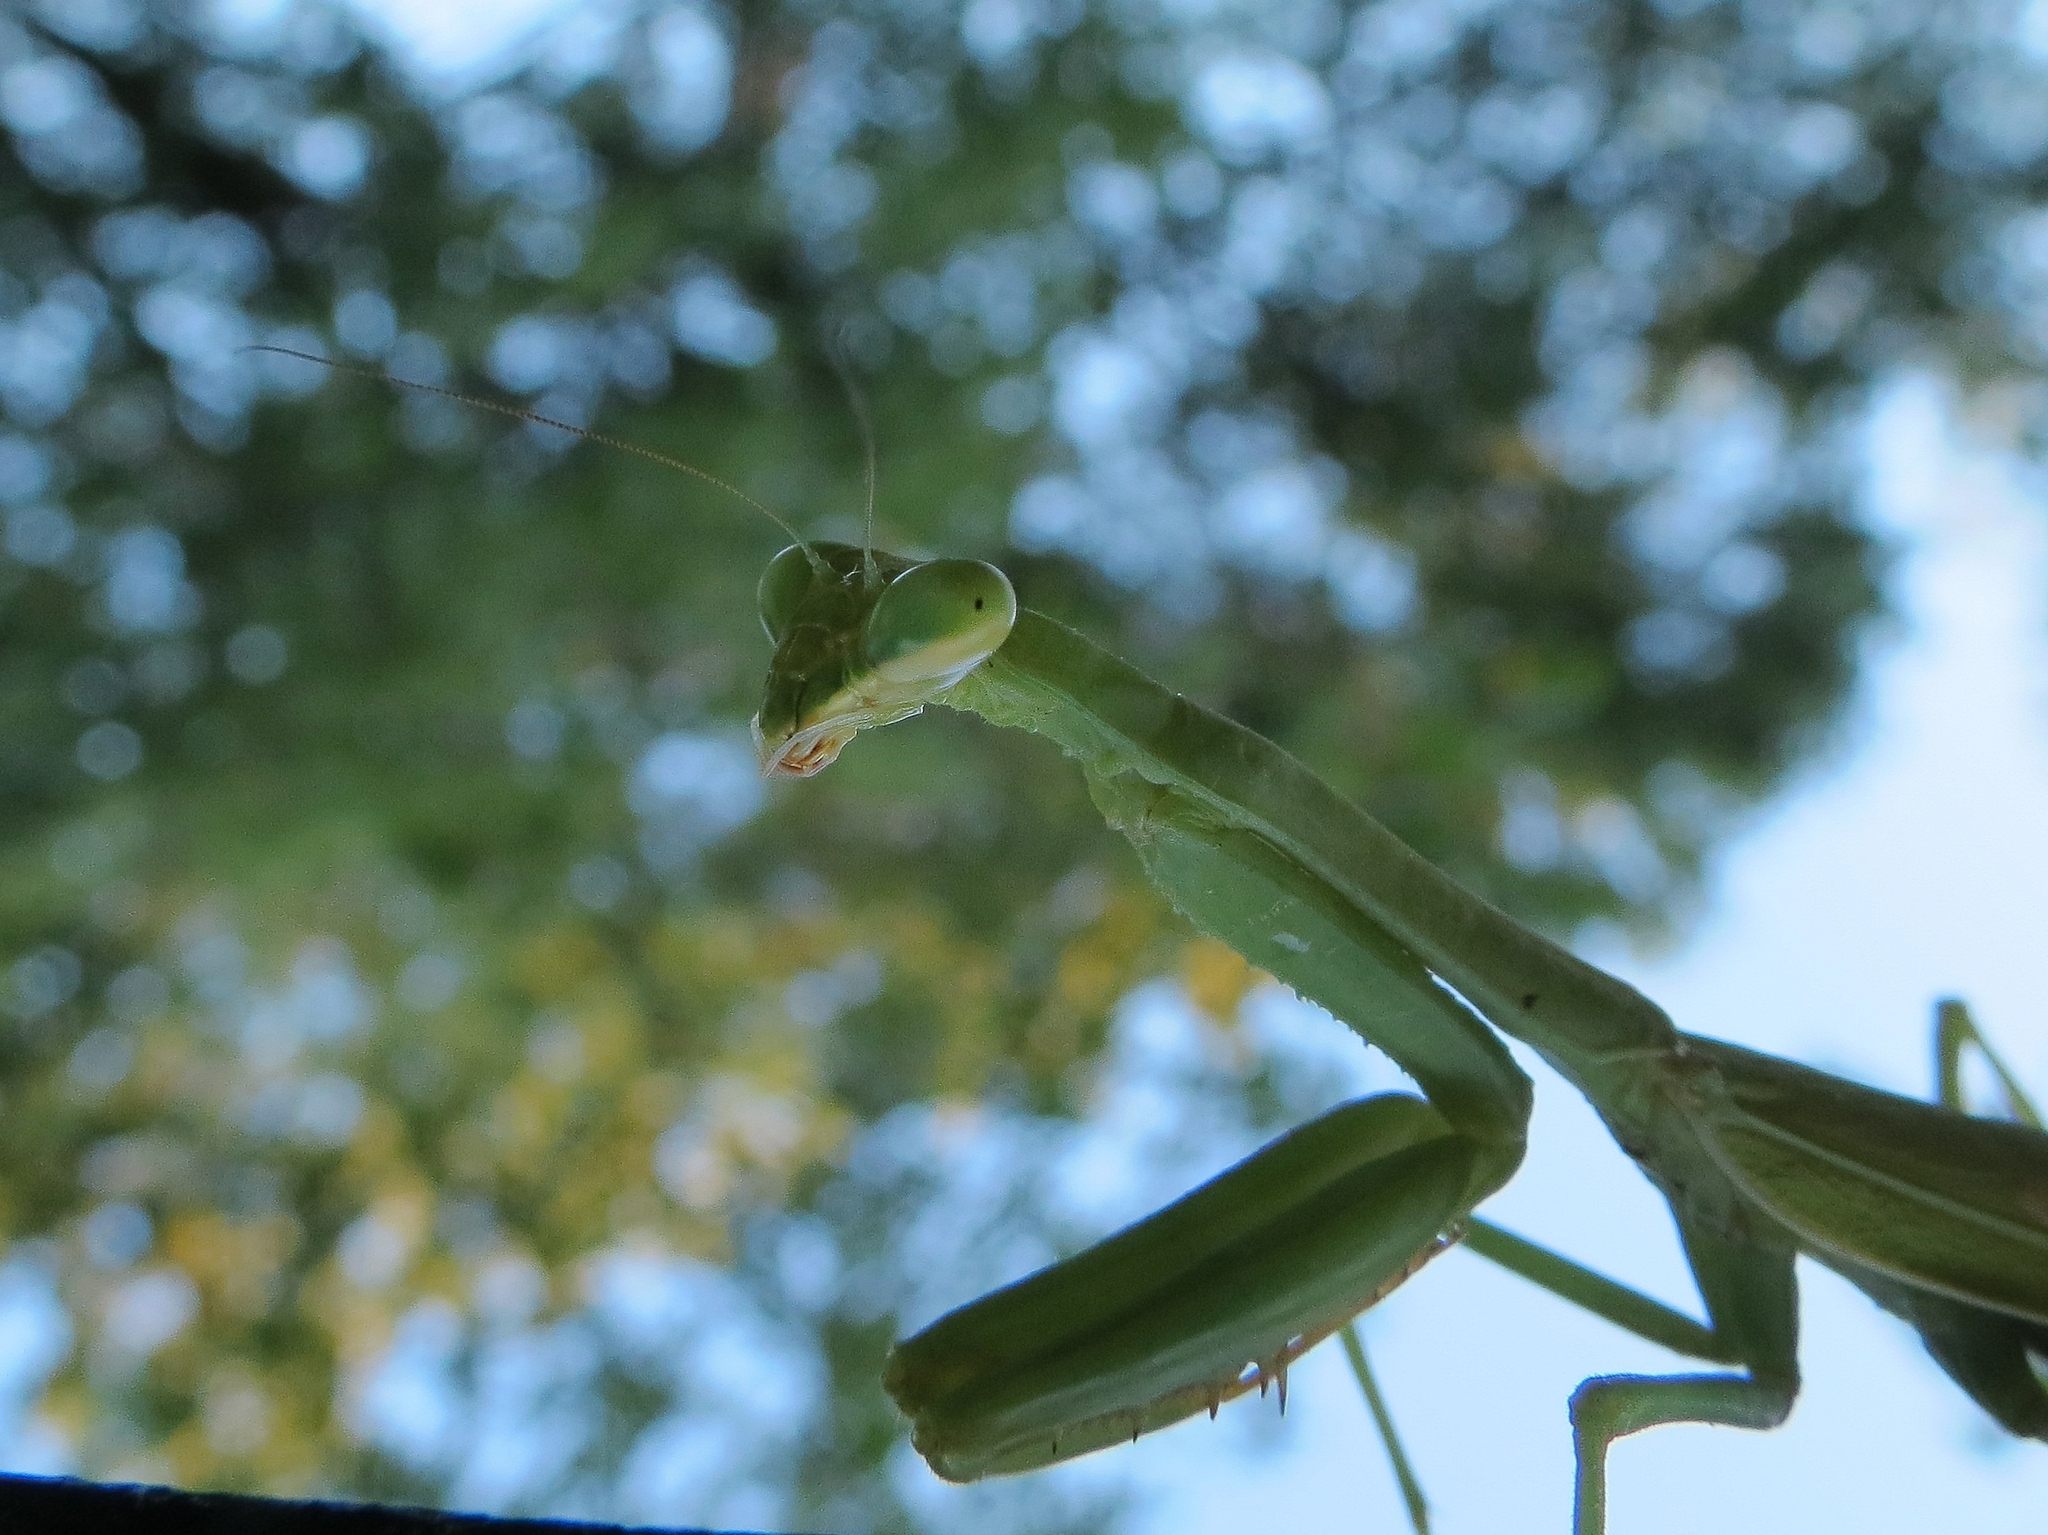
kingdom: Animalia
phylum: Arthropoda
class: Insecta
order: Mantodea
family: Mantidae
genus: Stagmomantis
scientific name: Stagmomantis carolina
